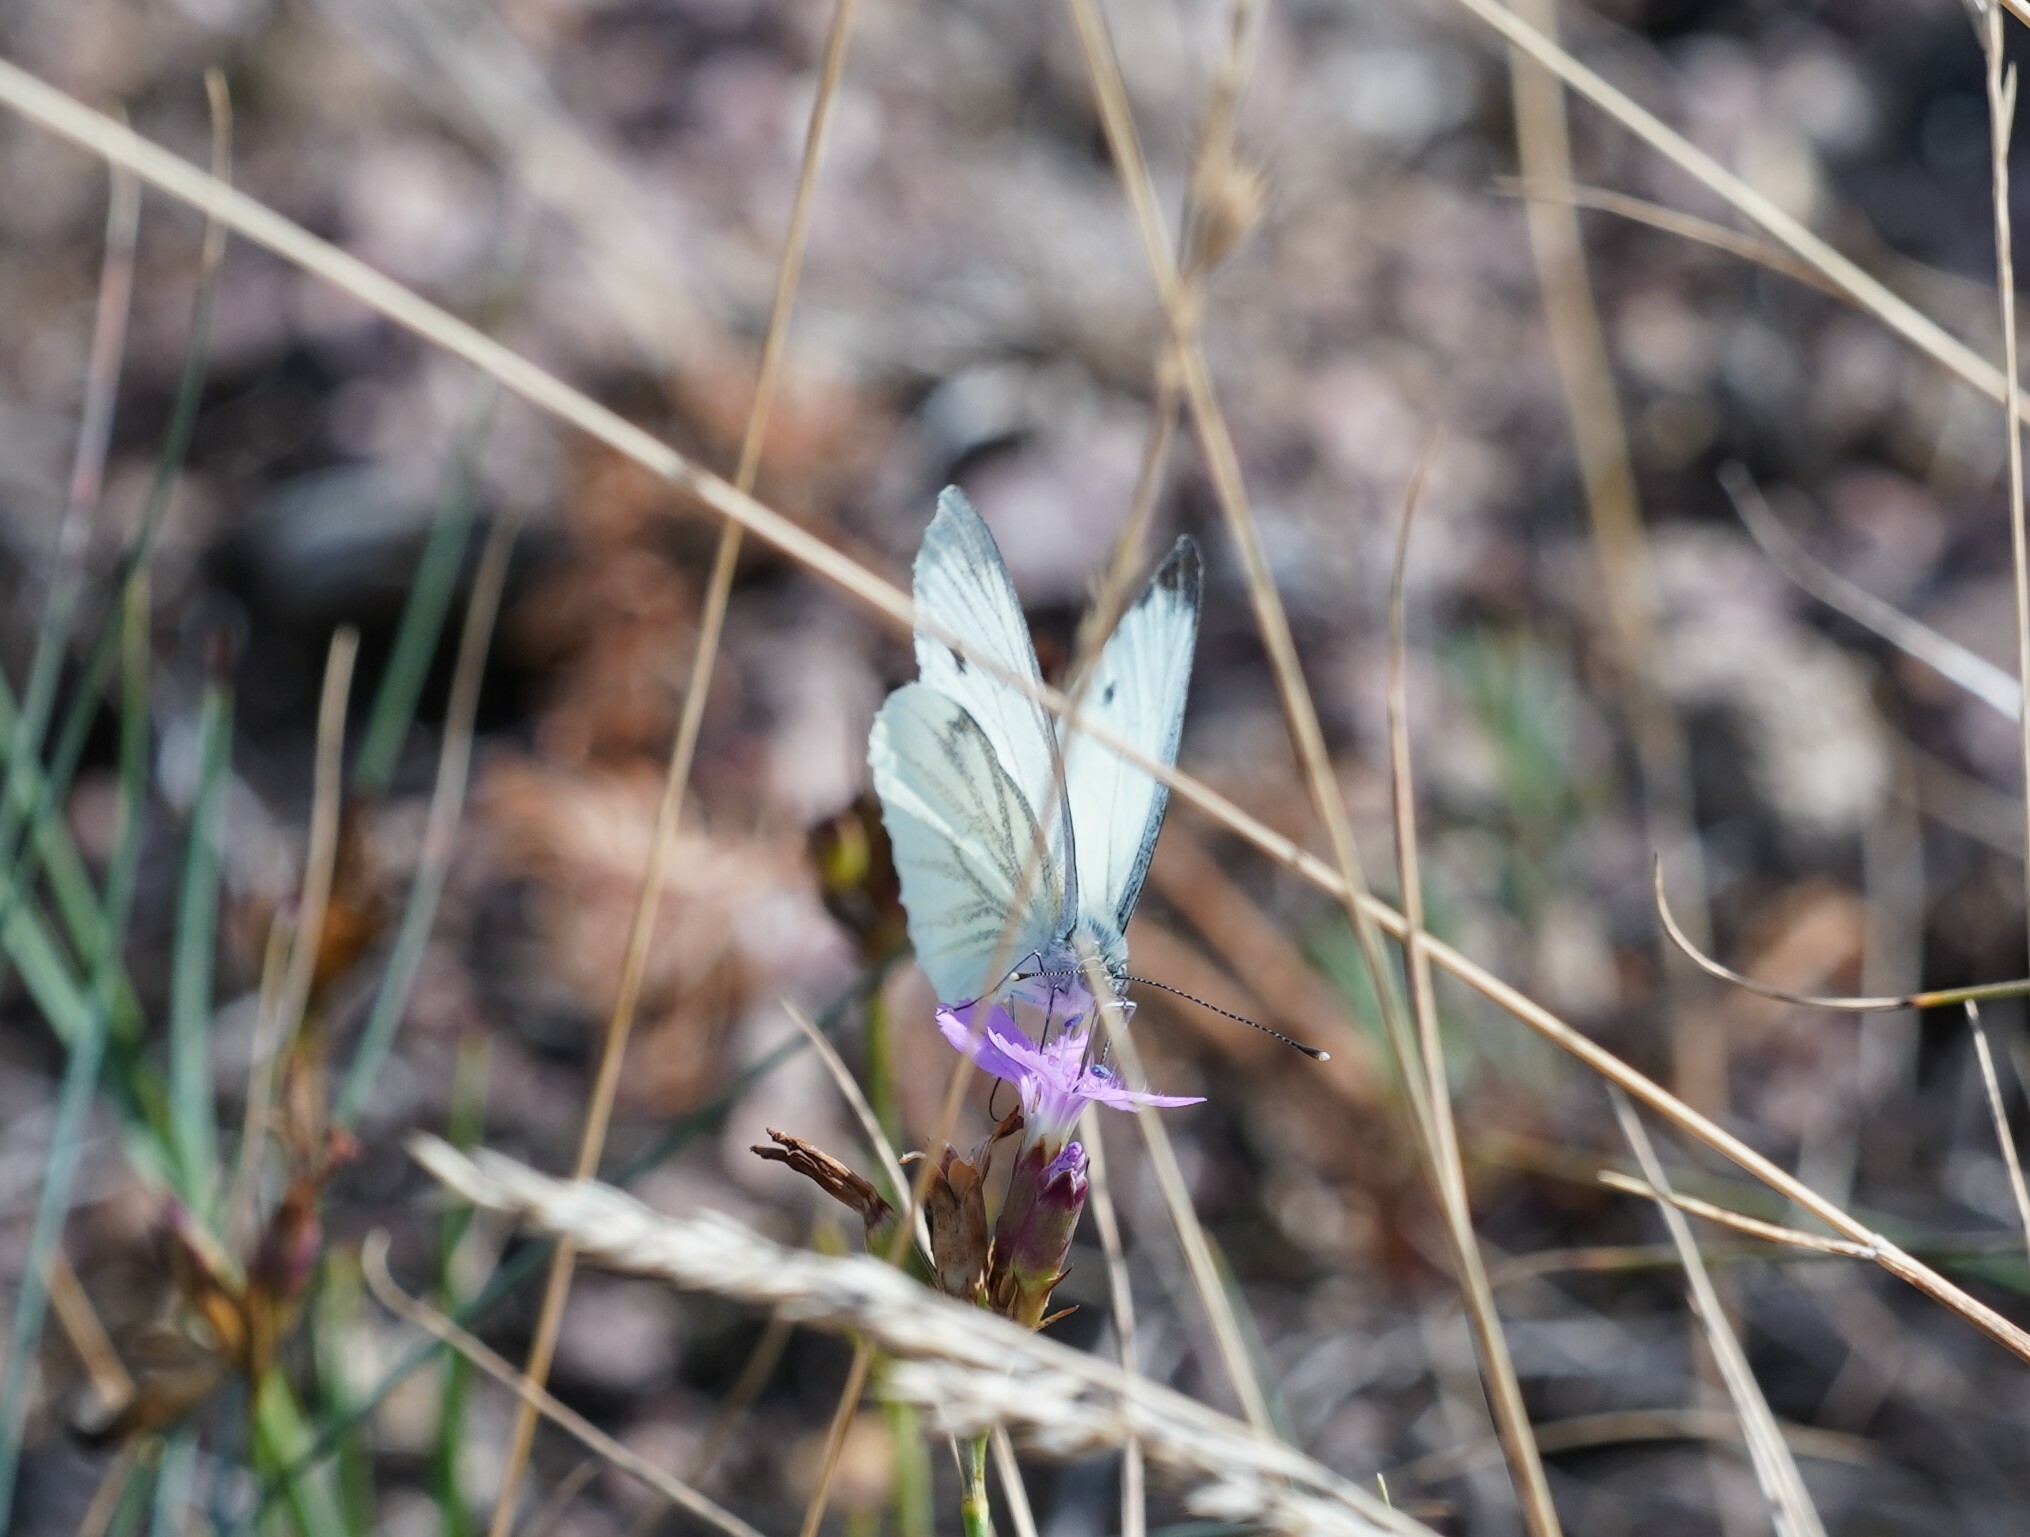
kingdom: Animalia
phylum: Arthropoda
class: Insecta
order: Lepidoptera
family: Pieridae
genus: Pieris
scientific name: Pieris napi
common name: Green-veined white
